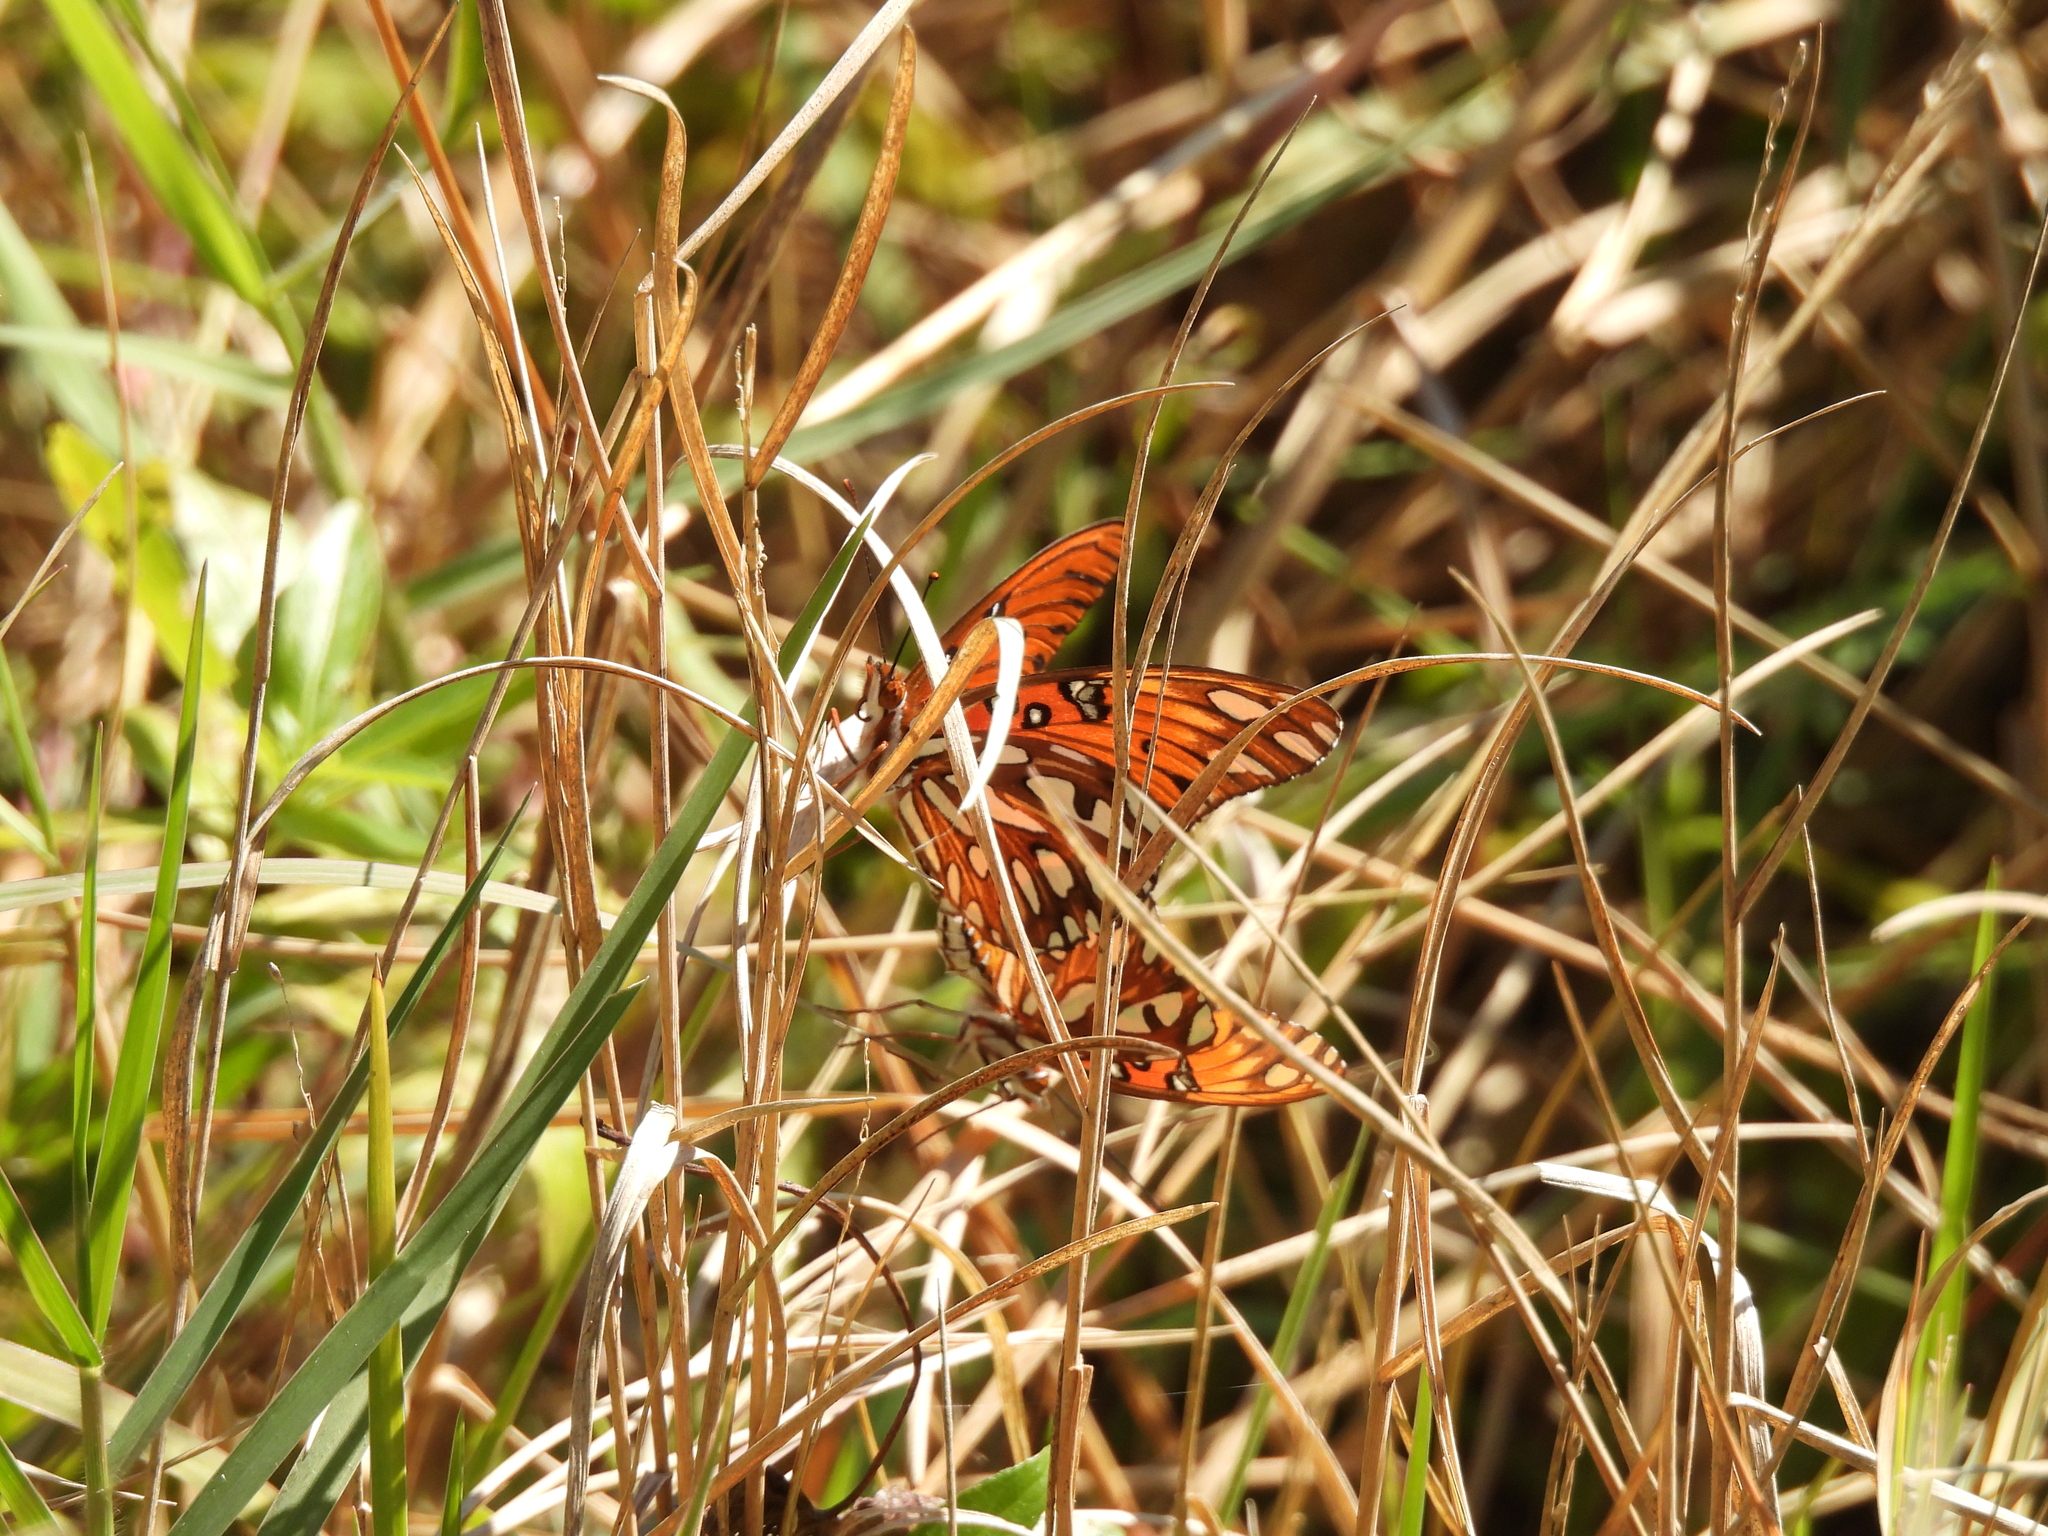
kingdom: Animalia
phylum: Arthropoda
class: Insecta
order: Lepidoptera
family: Nymphalidae
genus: Dione
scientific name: Dione vanillae
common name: Gulf fritillary
